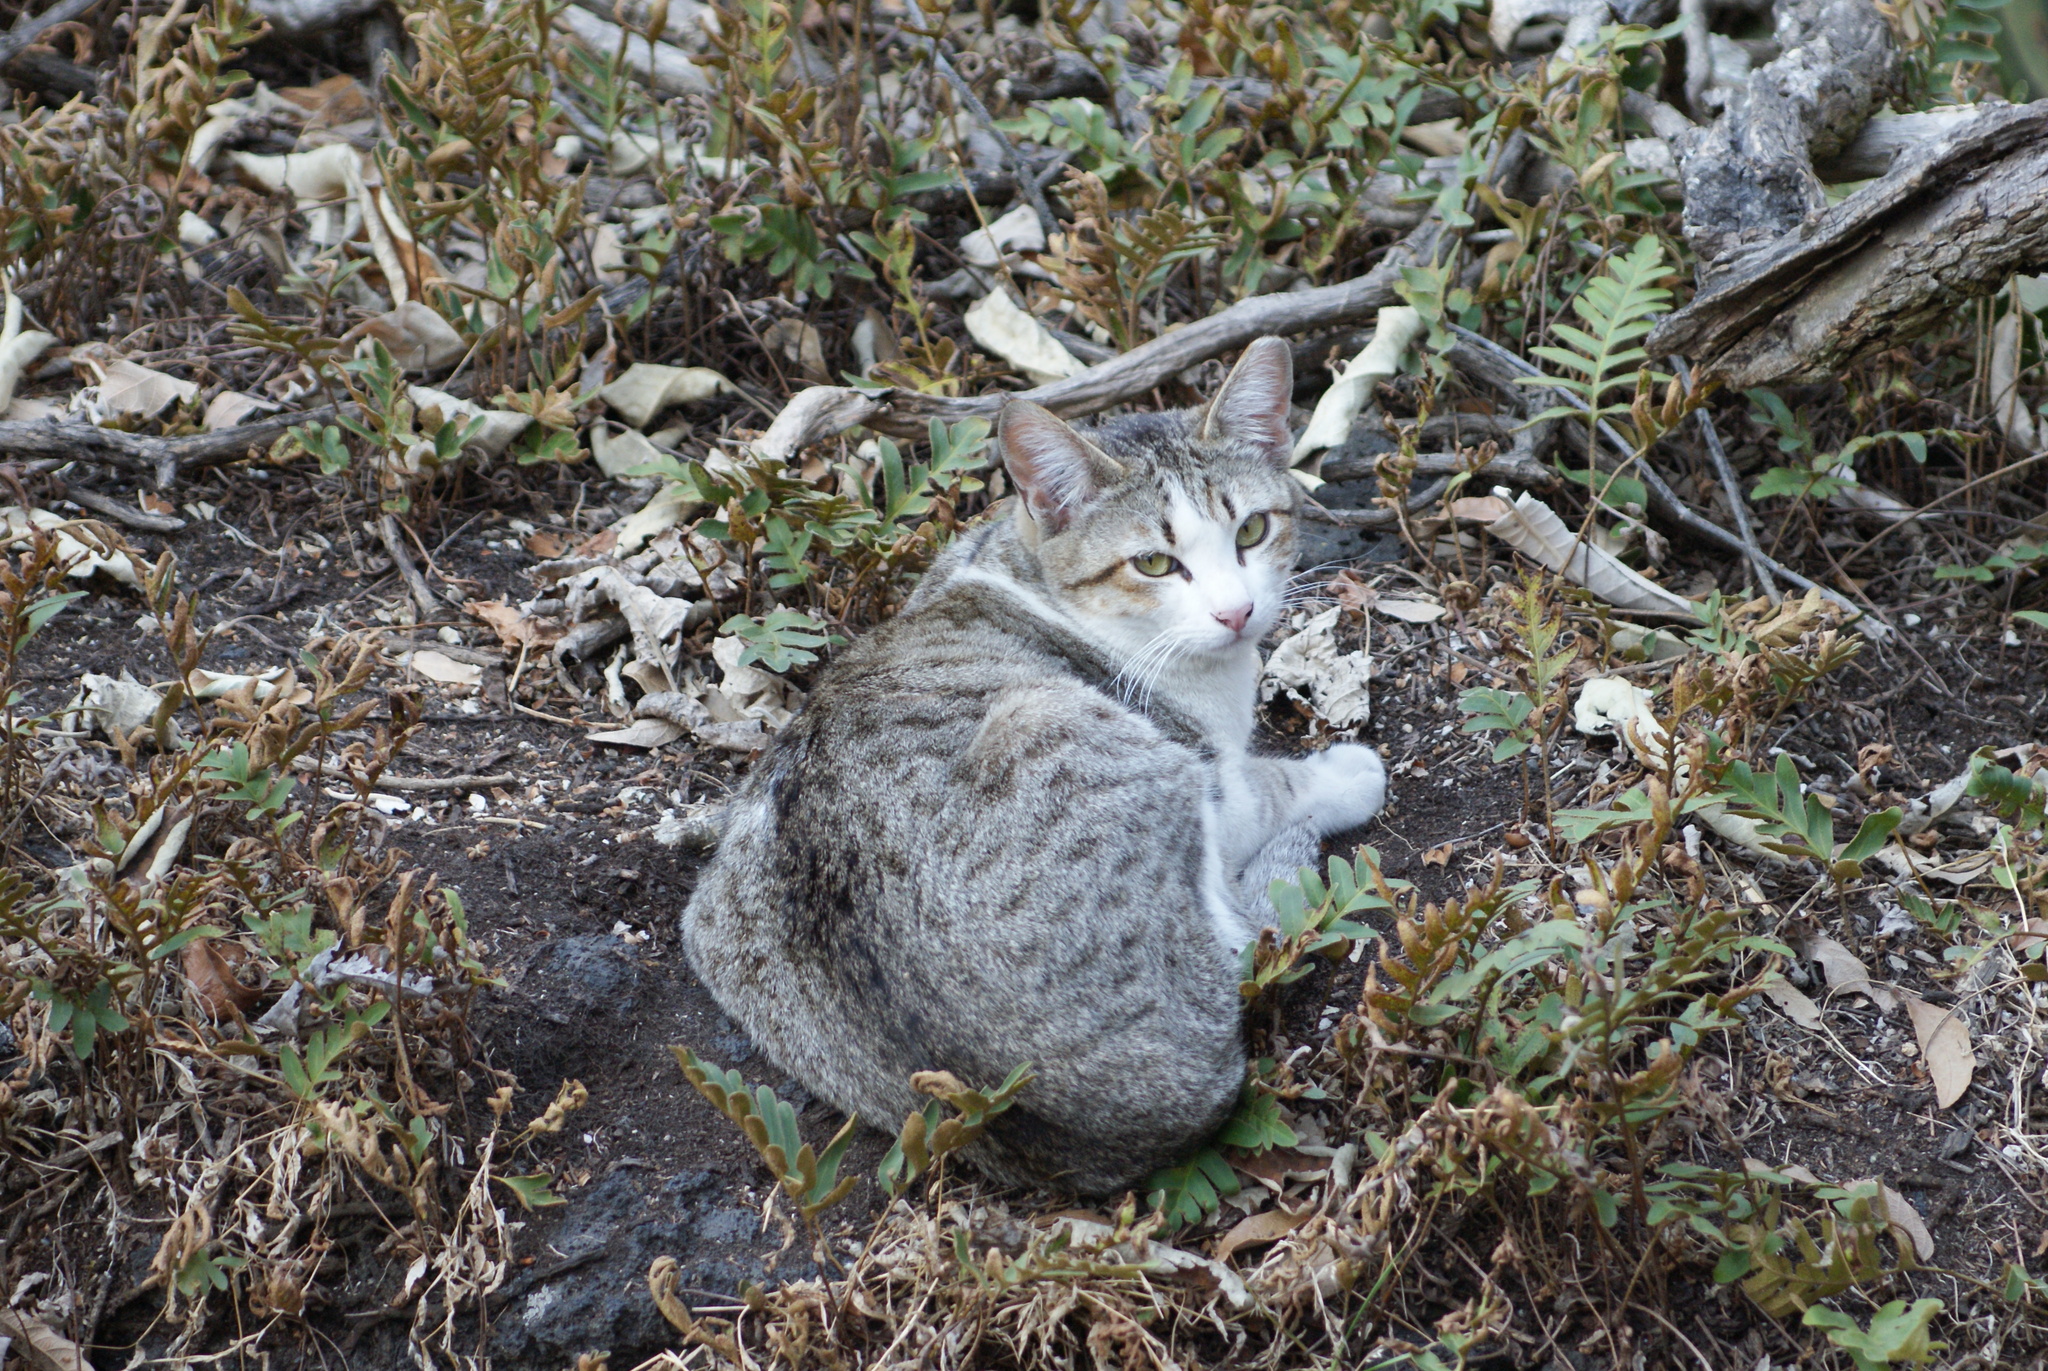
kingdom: Animalia
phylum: Chordata
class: Mammalia
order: Carnivora
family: Felidae
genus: Felis
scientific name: Felis catus
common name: Domestic cat
